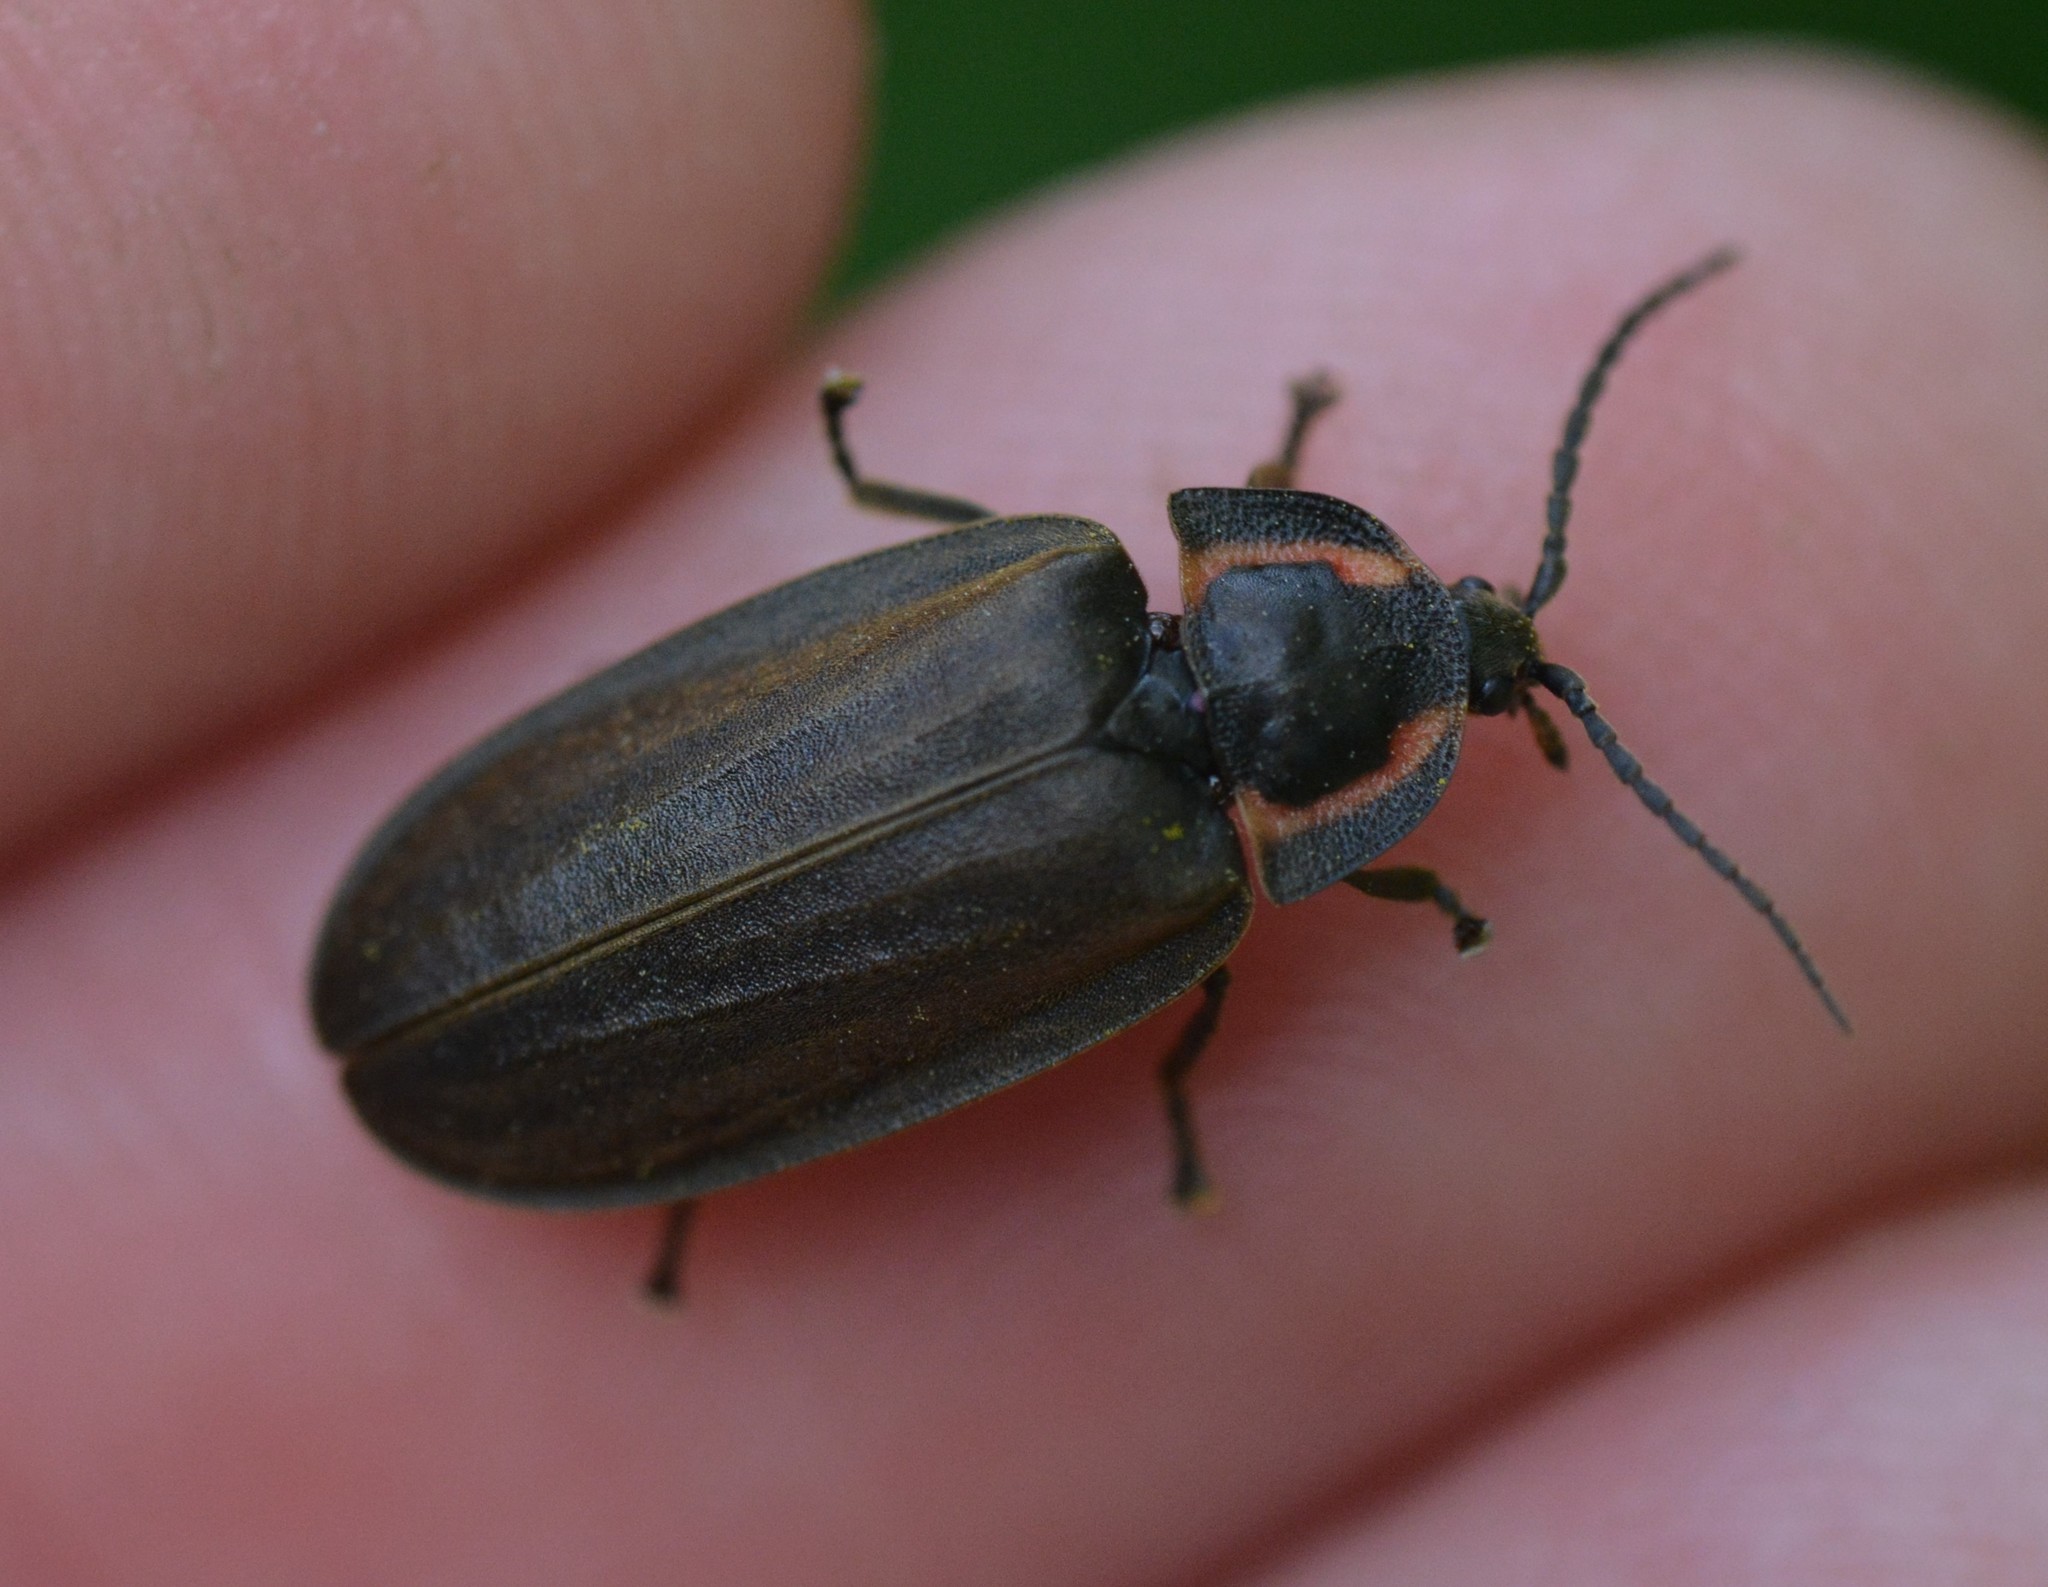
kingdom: Animalia
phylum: Arthropoda
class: Insecta
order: Coleoptera
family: Lampyridae
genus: Photinus
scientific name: Photinus corrusca
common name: Winter firefly
